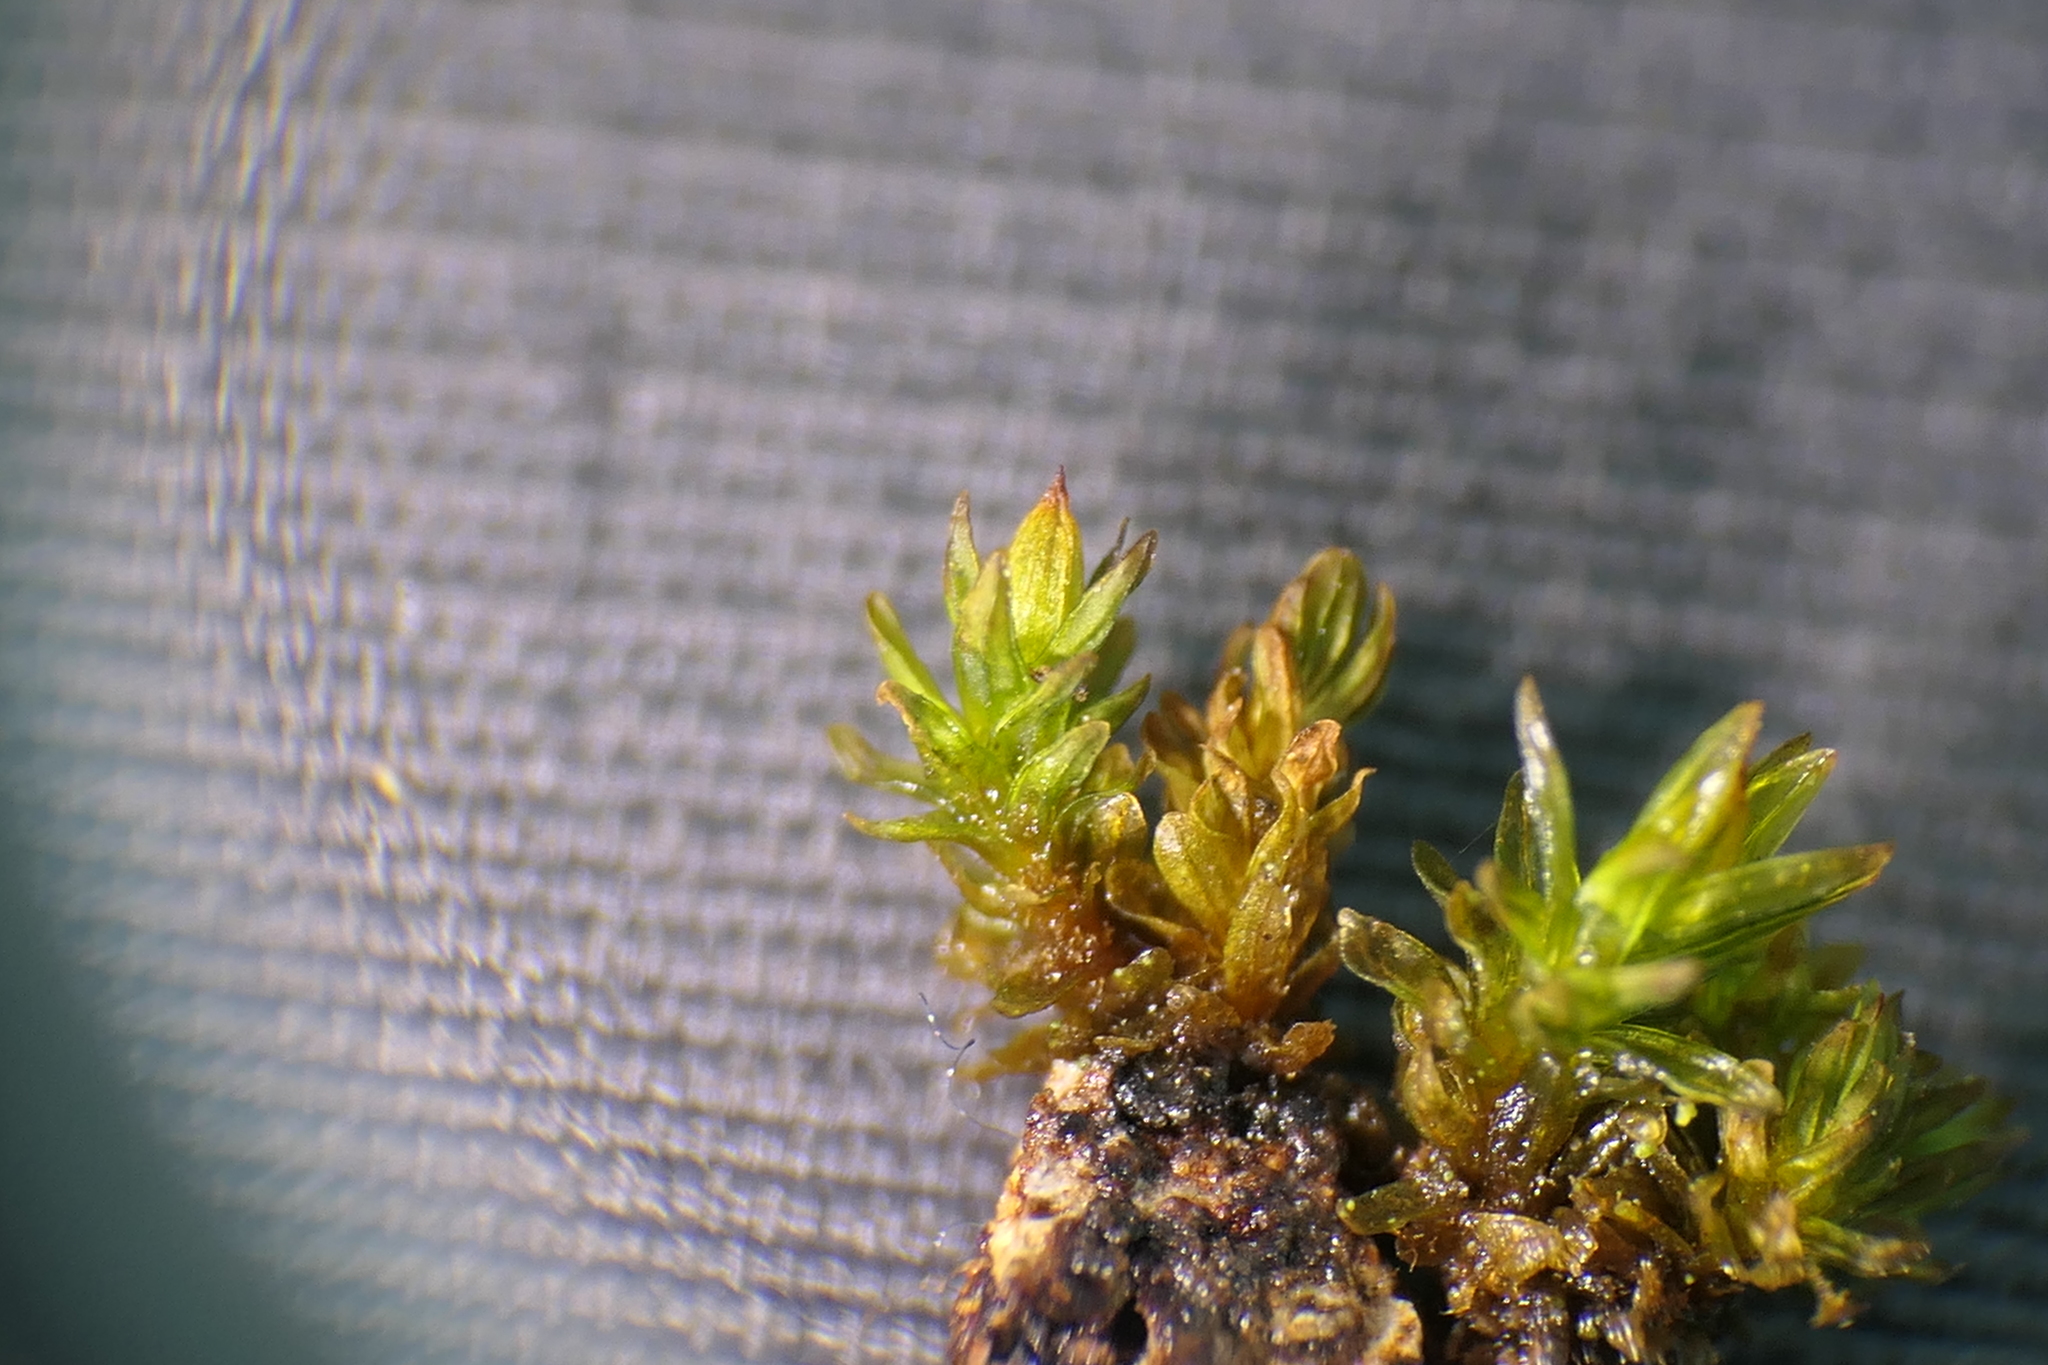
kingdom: Plantae
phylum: Bryophyta
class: Bryopsida
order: Orthotrichales
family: Orthotrichaceae
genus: Orthotrichum
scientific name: Orthotrichum macrocephalum
